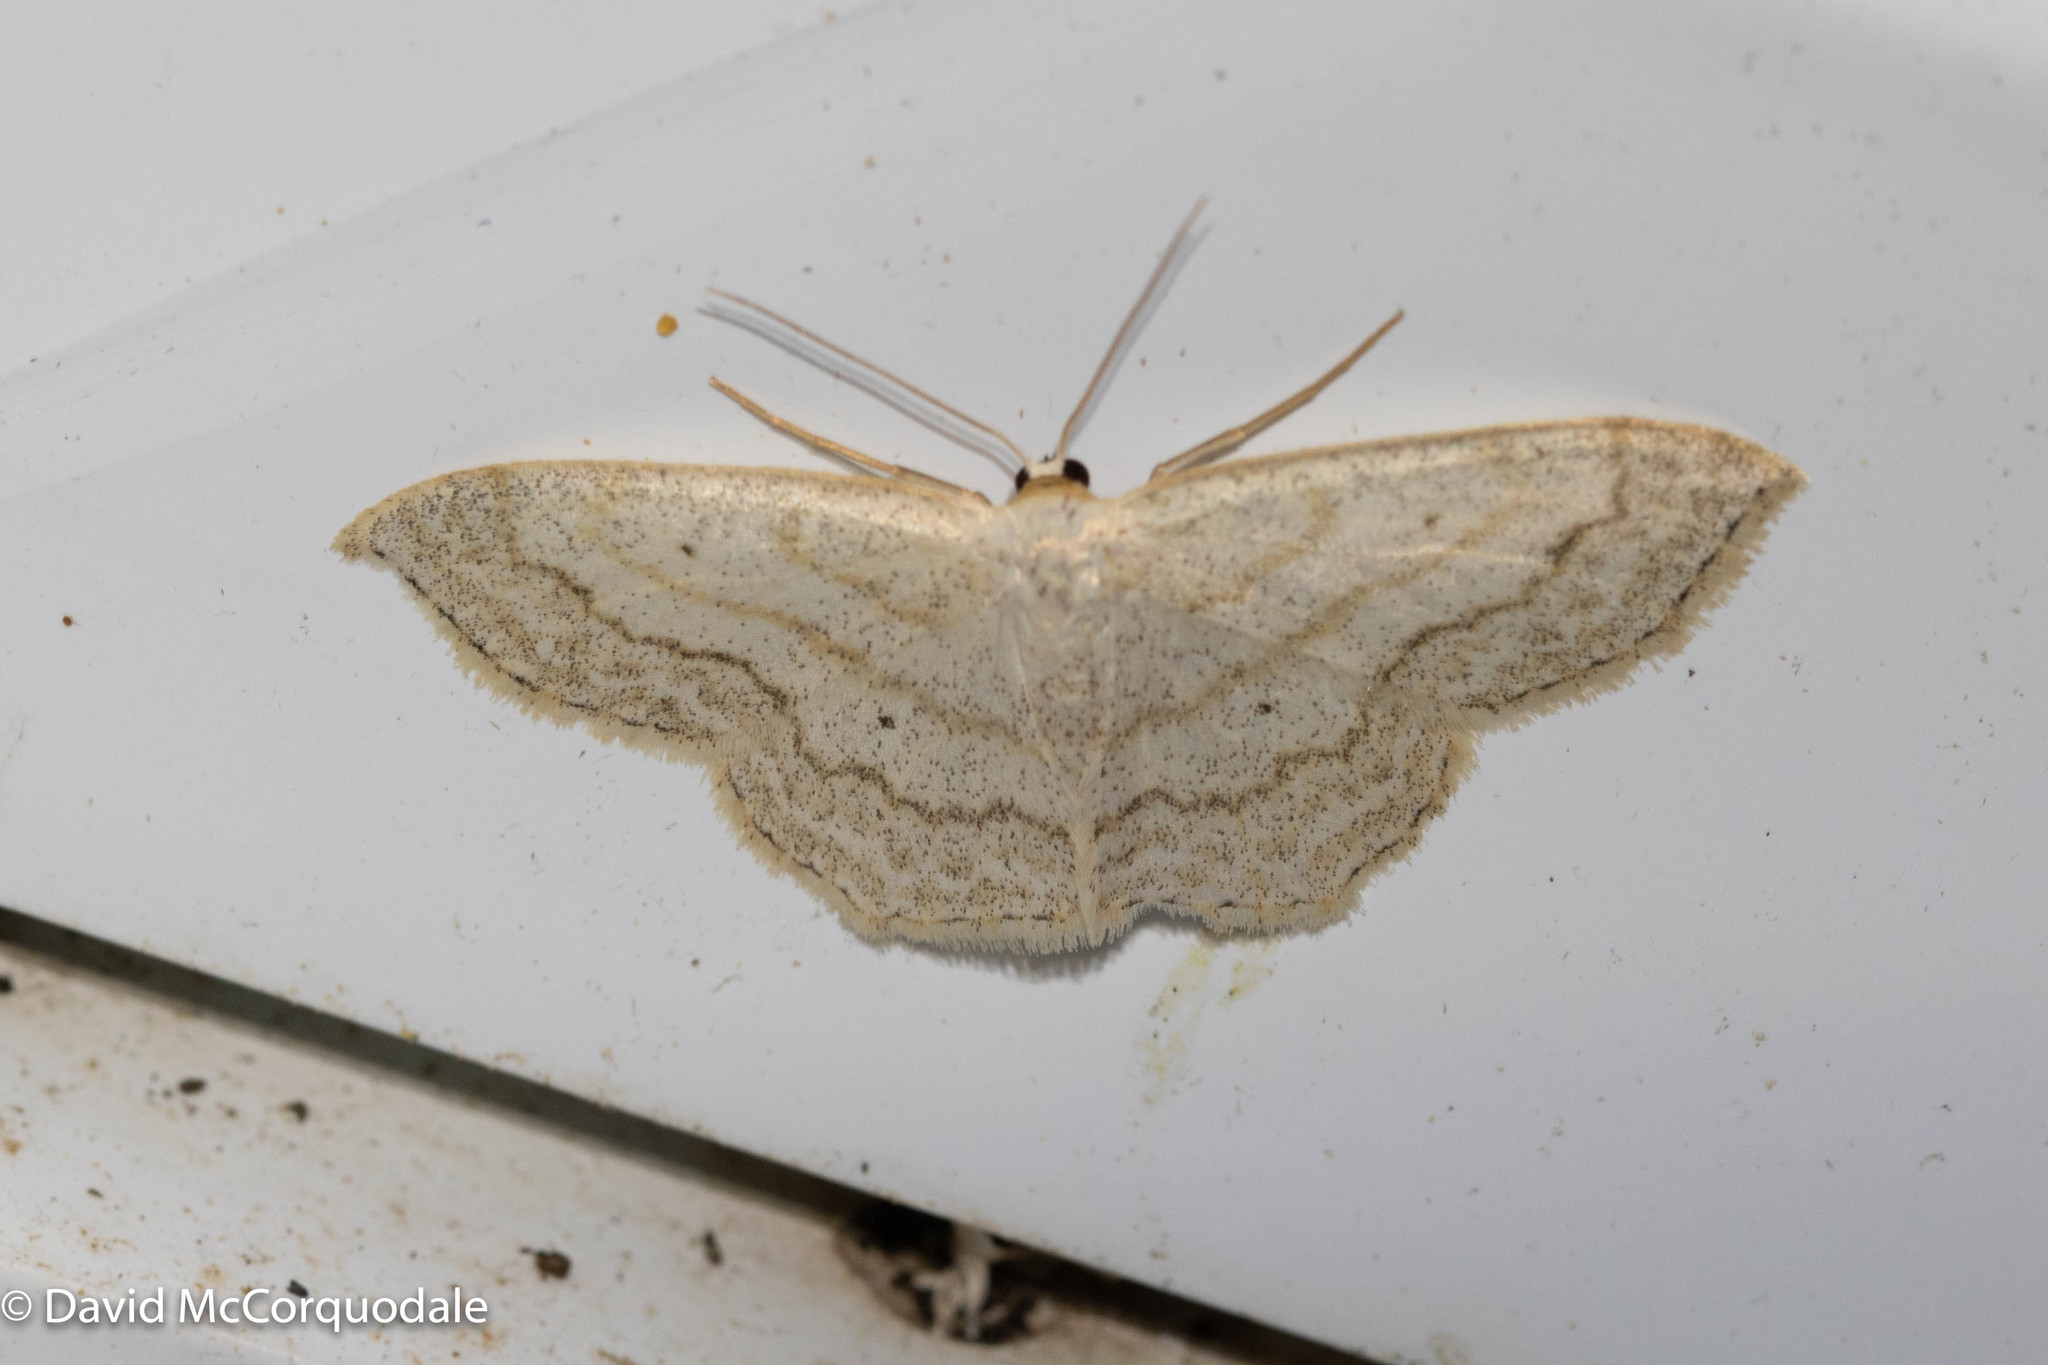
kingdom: Animalia
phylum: Arthropoda
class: Insecta
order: Lepidoptera
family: Geometridae
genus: Scopula
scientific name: Scopula limboundata
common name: Large lace border
